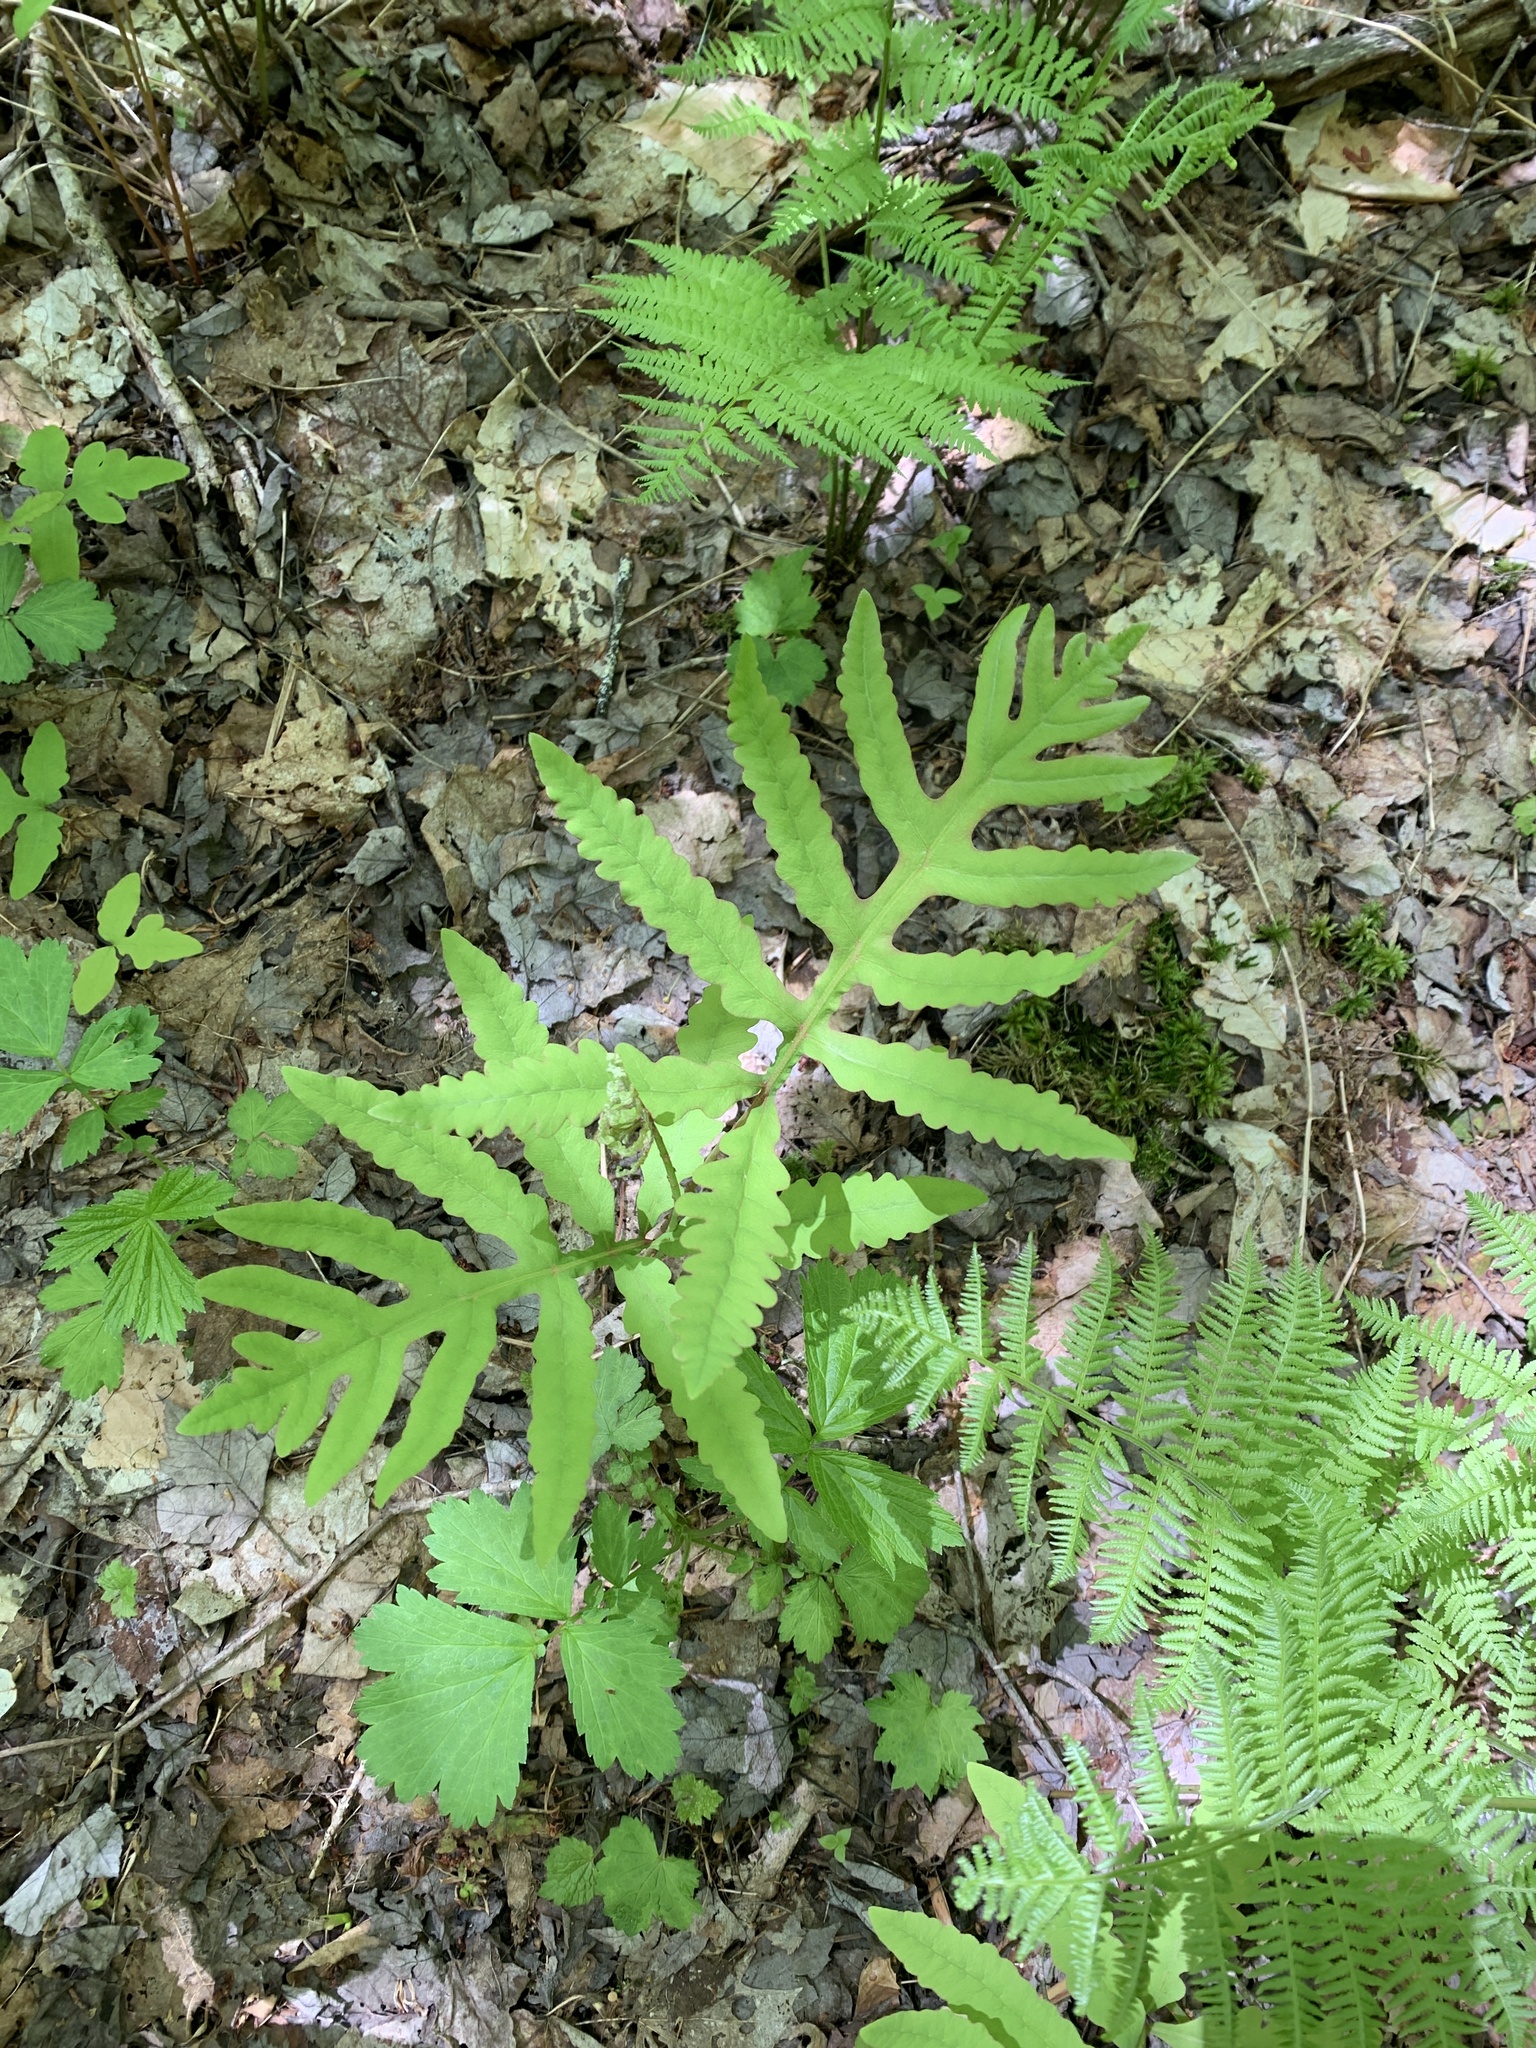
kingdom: Plantae
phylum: Tracheophyta
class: Polypodiopsida
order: Polypodiales
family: Onocleaceae
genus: Onoclea
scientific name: Onoclea sensibilis
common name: Sensitive fern
